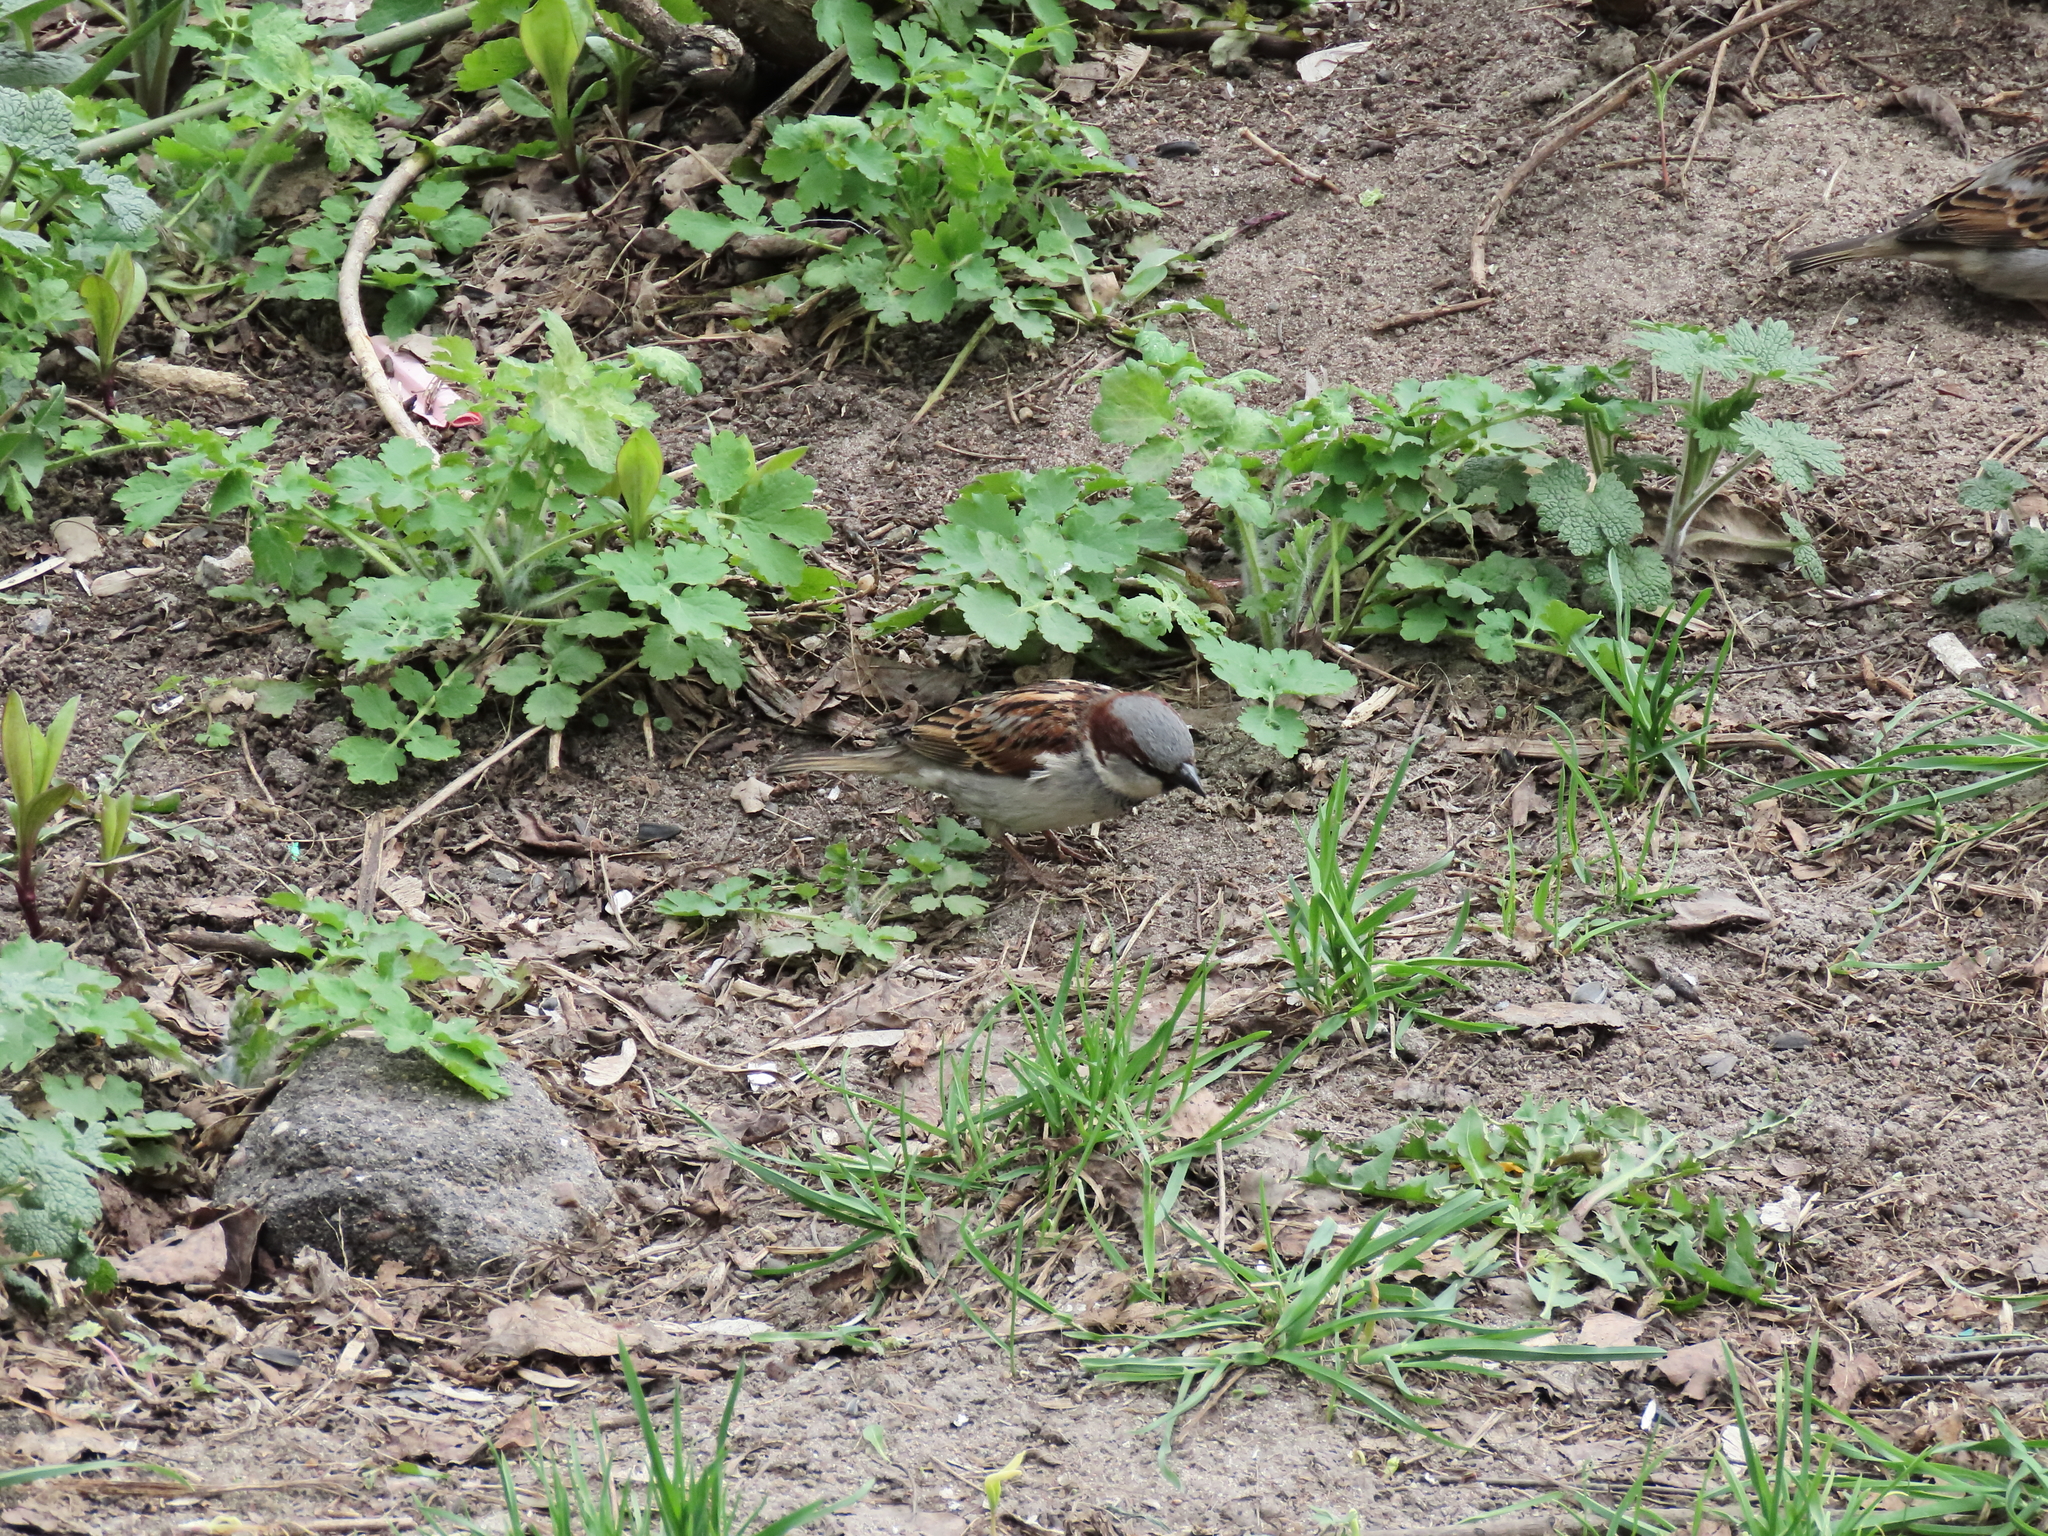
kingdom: Animalia
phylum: Chordata
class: Aves
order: Passeriformes
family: Passeridae
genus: Passer
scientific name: Passer domesticus
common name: House sparrow
